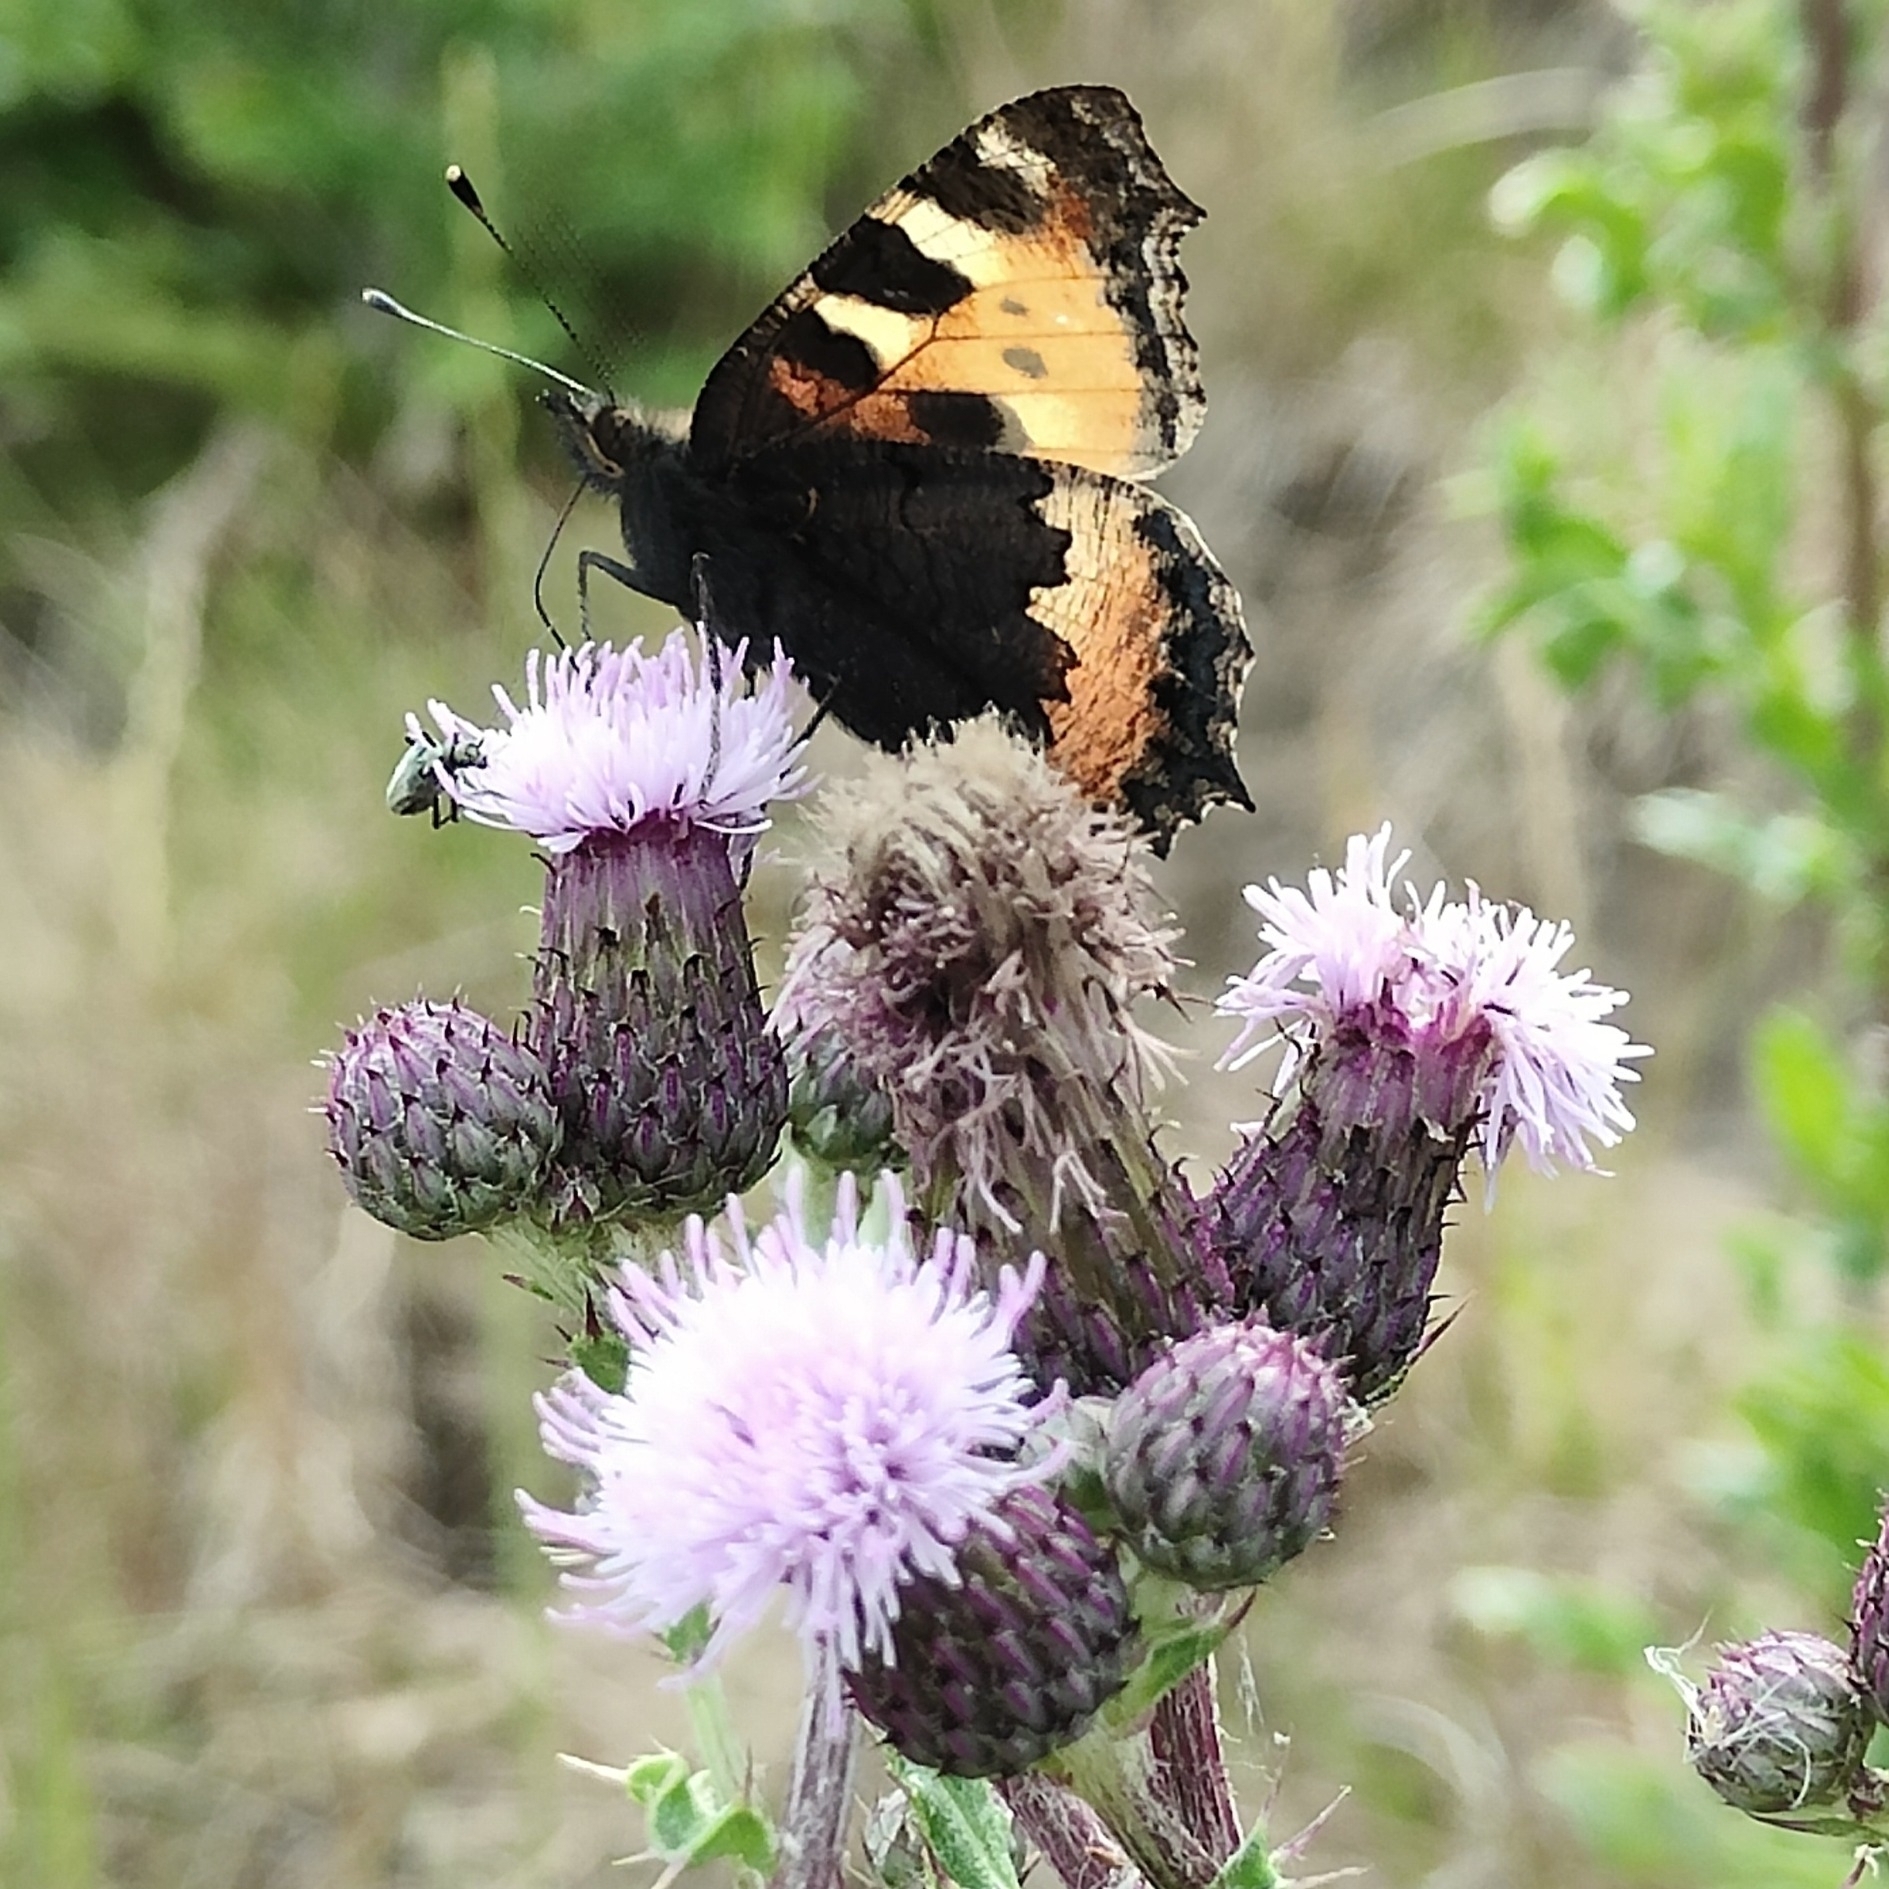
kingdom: Animalia
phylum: Arthropoda
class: Insecta
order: Lepidoptera
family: Nymphalidae
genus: Aglais
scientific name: Aglais urticae
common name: Small tortoiseshell
